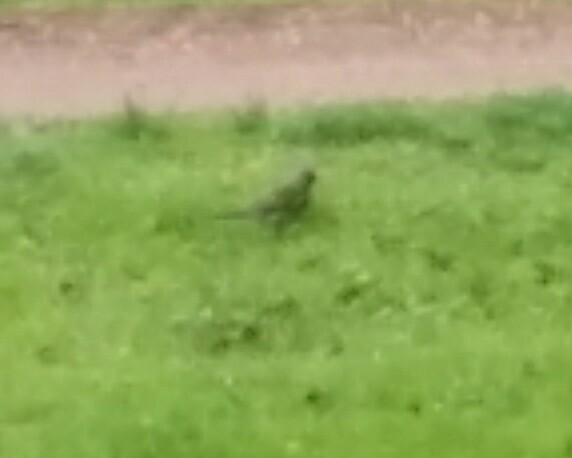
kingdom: Animalia
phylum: Chordata
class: Aves
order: Passeriformes
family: Turdidae
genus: Turdus
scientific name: Turdus pilaris
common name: Fieldfare
